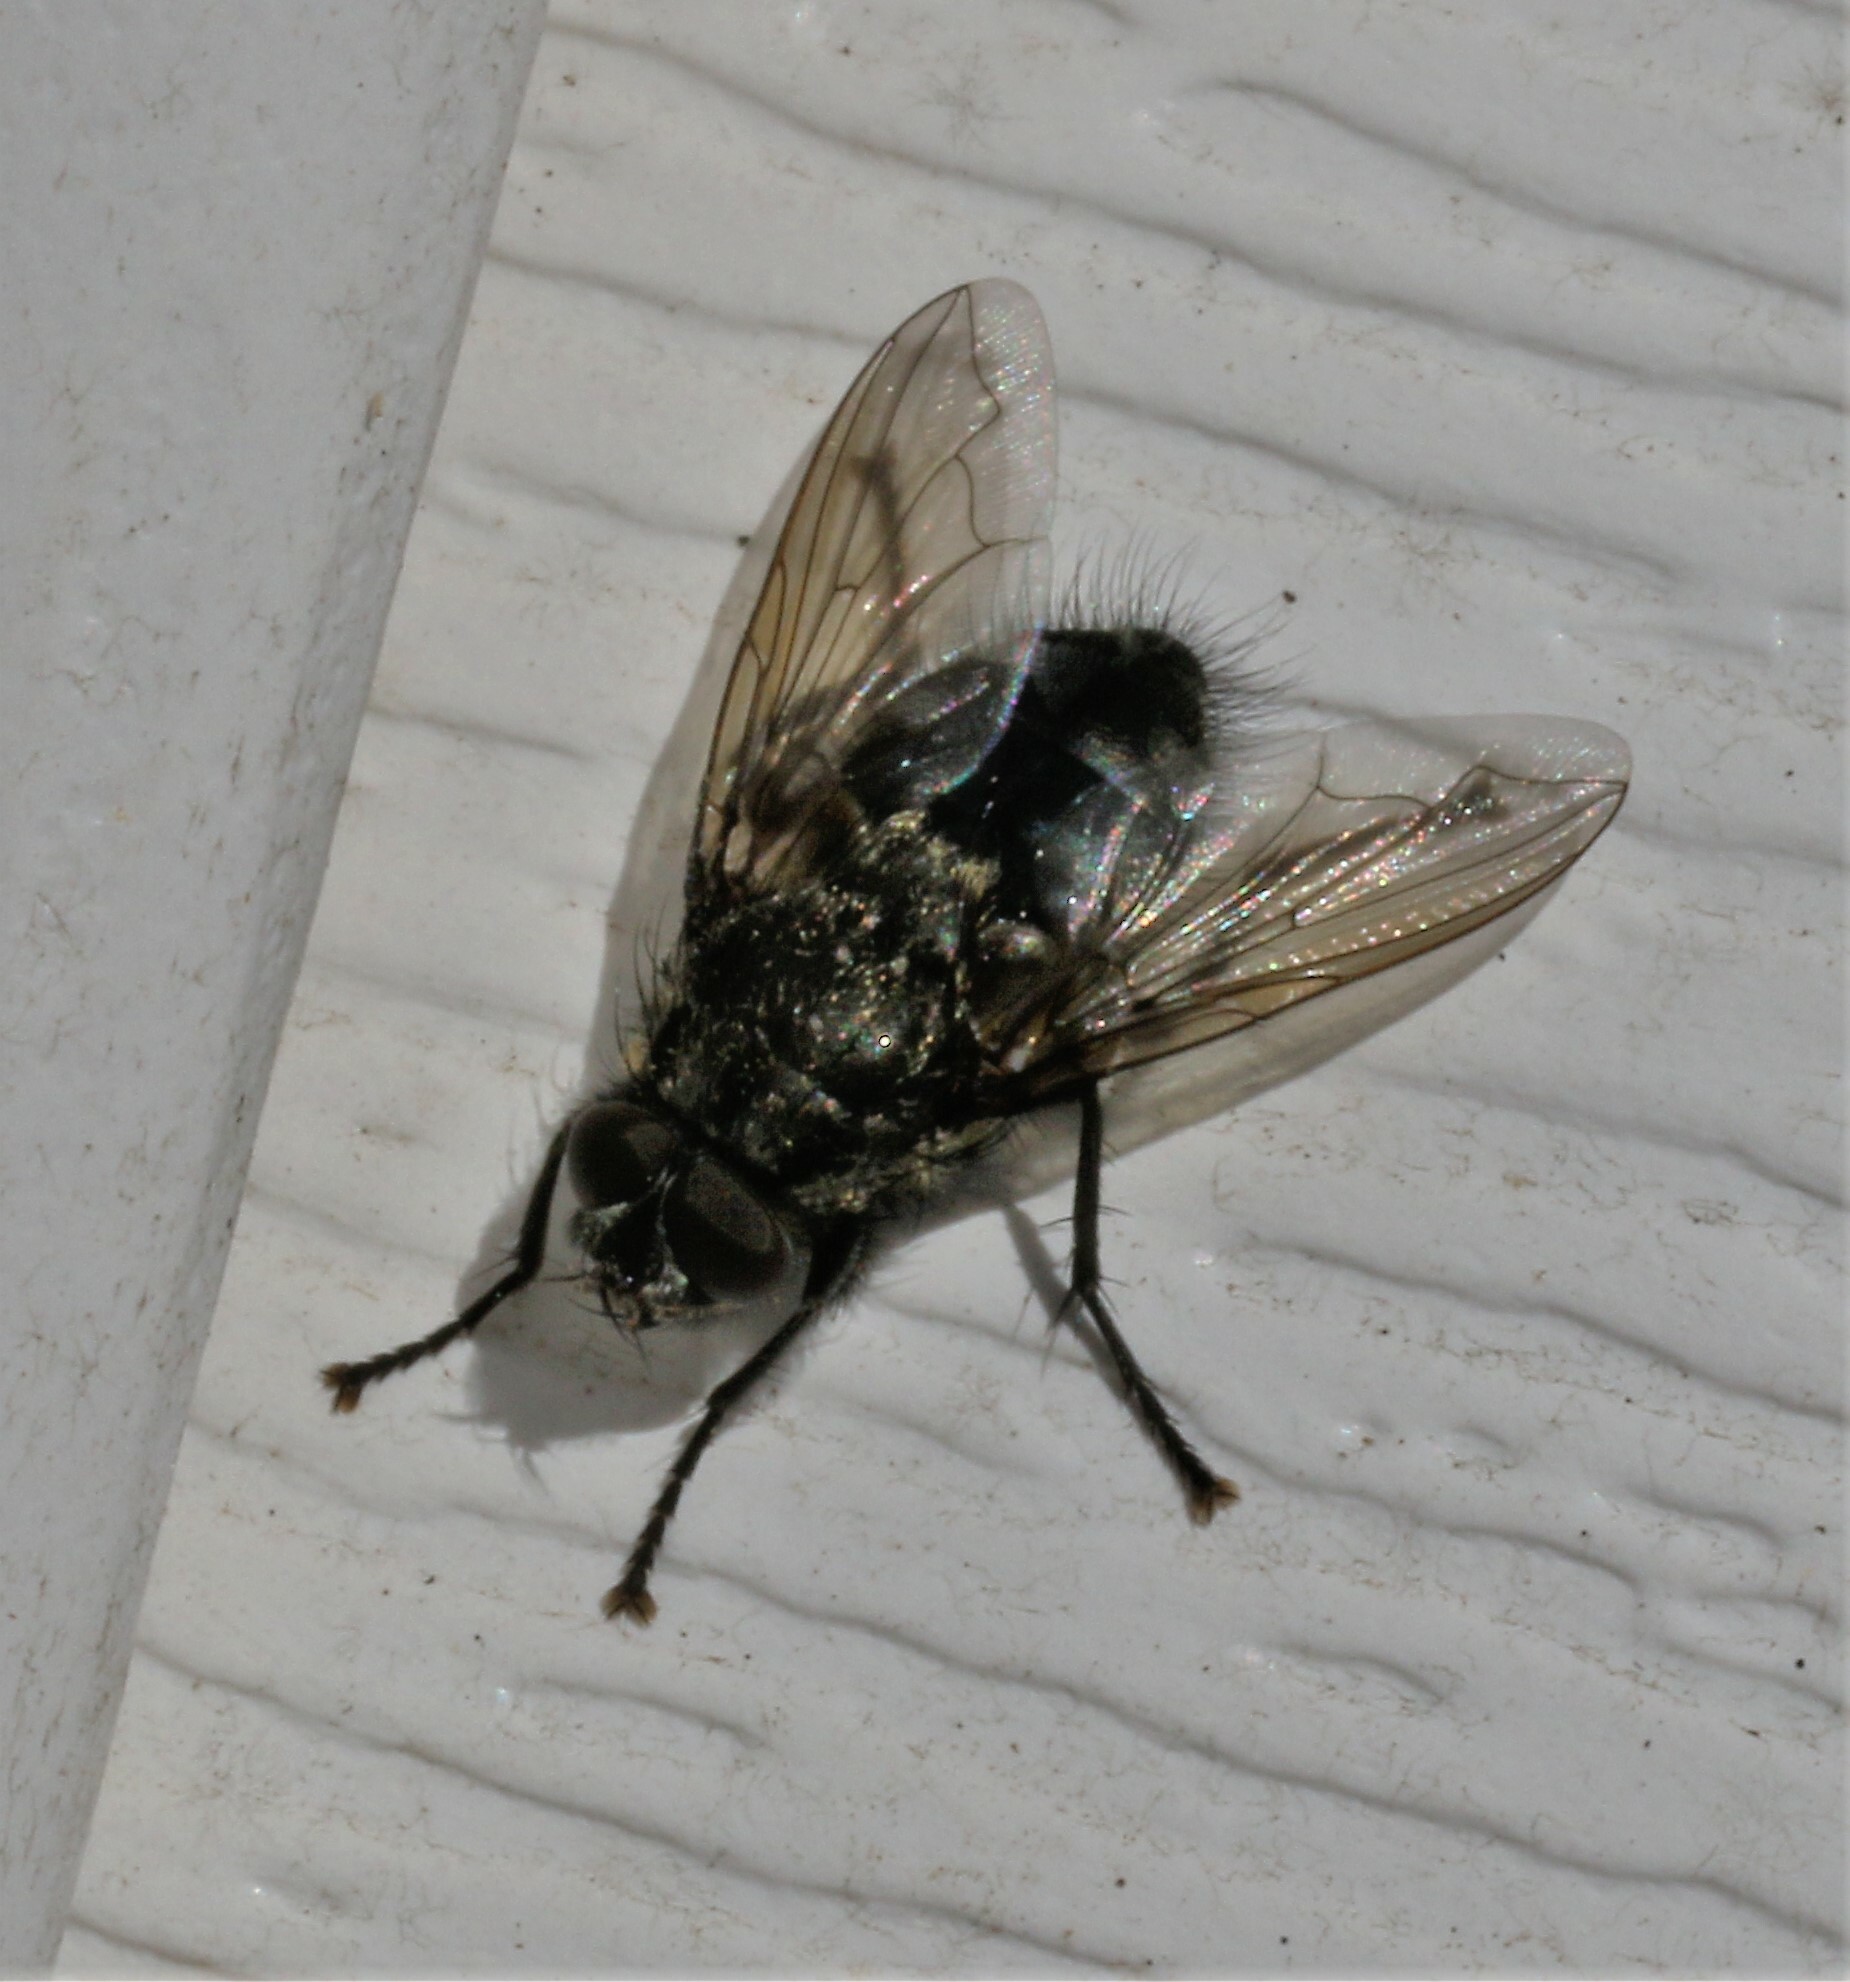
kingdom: Animalia
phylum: Arthropoda
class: Insecta
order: Diptera
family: Polleniidae
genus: Pollenia
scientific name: Pollenia vagabunda
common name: Vagabund cluster fly
